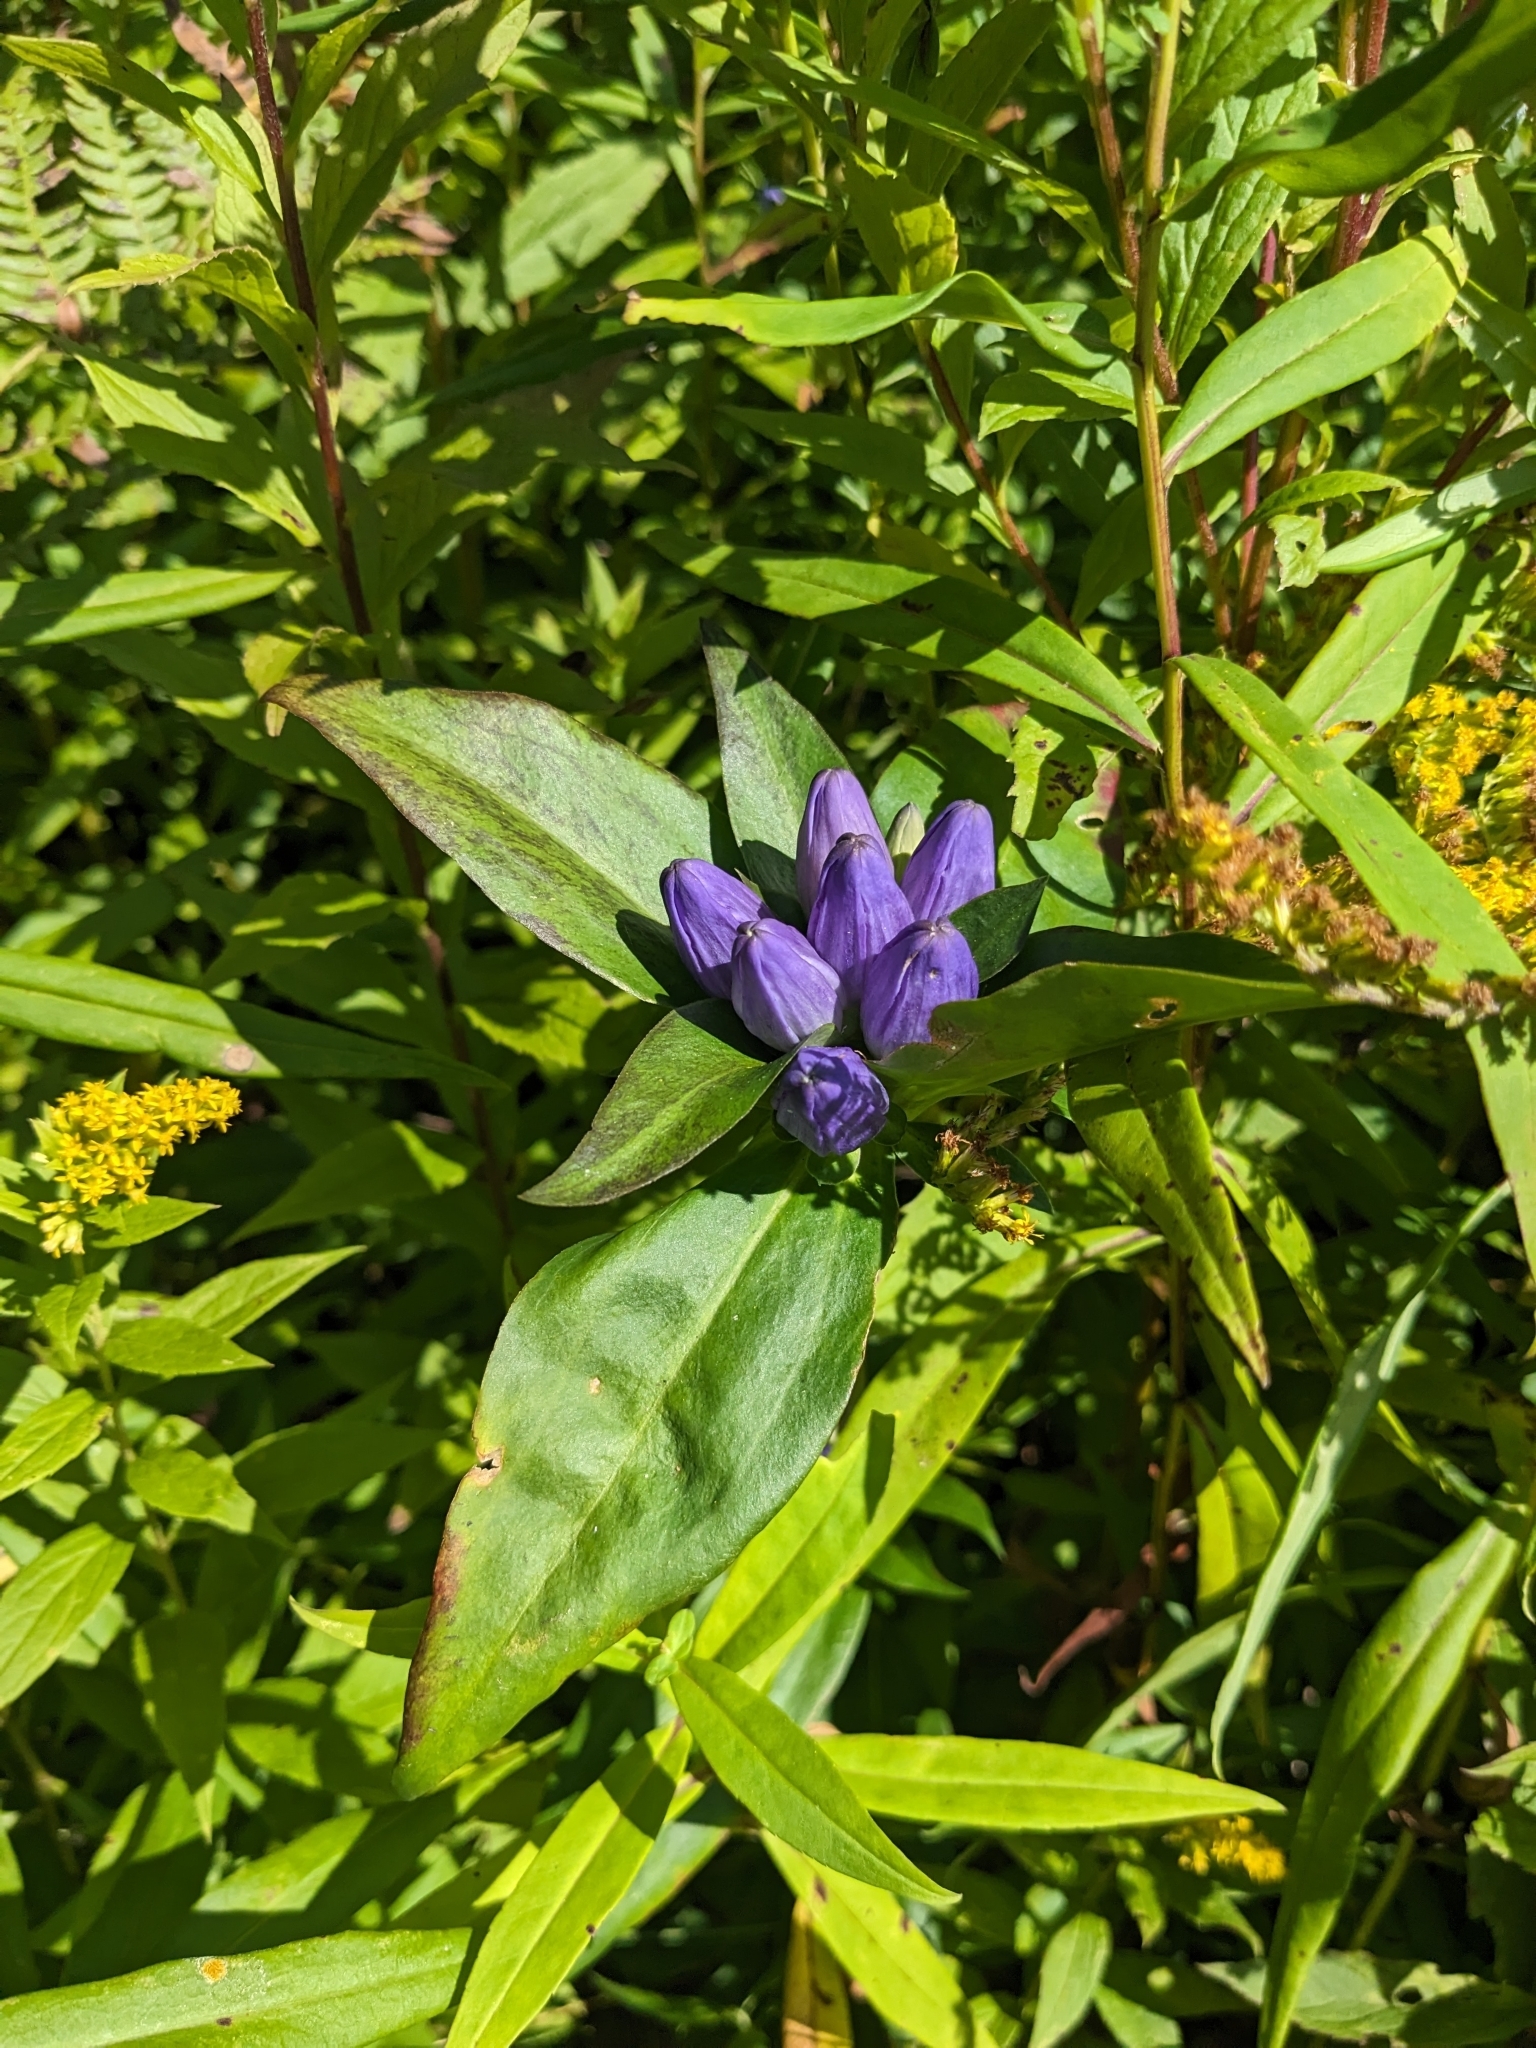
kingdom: Plantae
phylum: Tracheophyta
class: Magnoliopsida
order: Gentianales
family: Gentianaceae
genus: Gentiana
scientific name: Gentiana clausa
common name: Blind gentian
